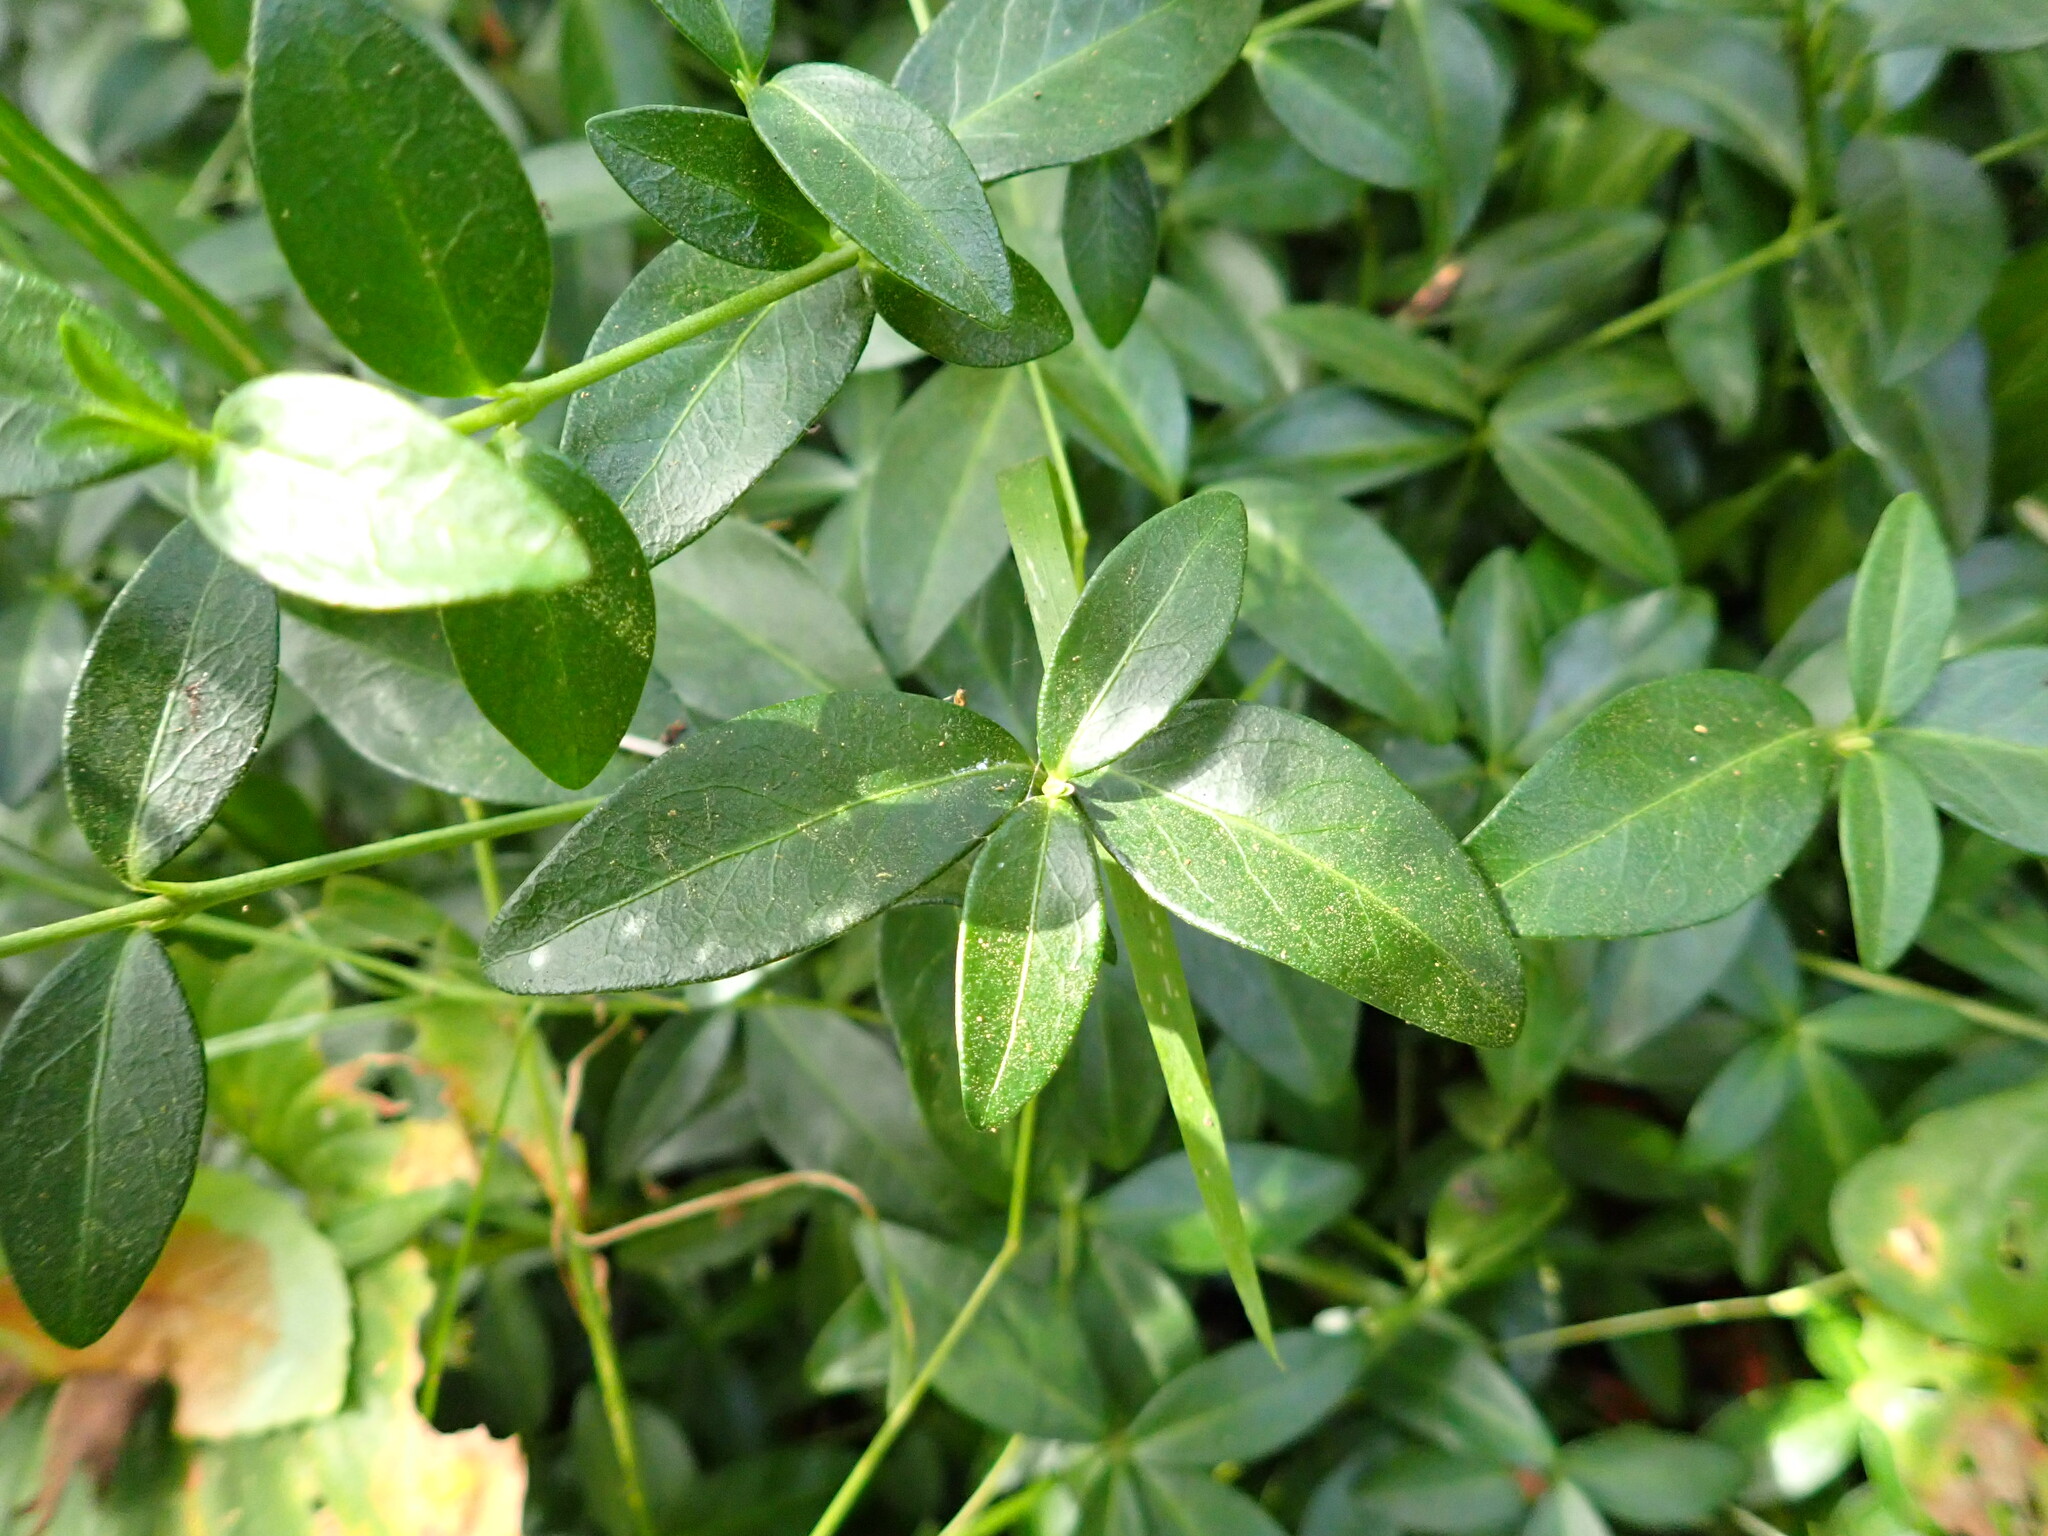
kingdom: Plantae
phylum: Tracheophyta
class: Magnoliopsida
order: Gentianales
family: Apocynaceae
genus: Vinca
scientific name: Vinca minor
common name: Lesser periwinkle
